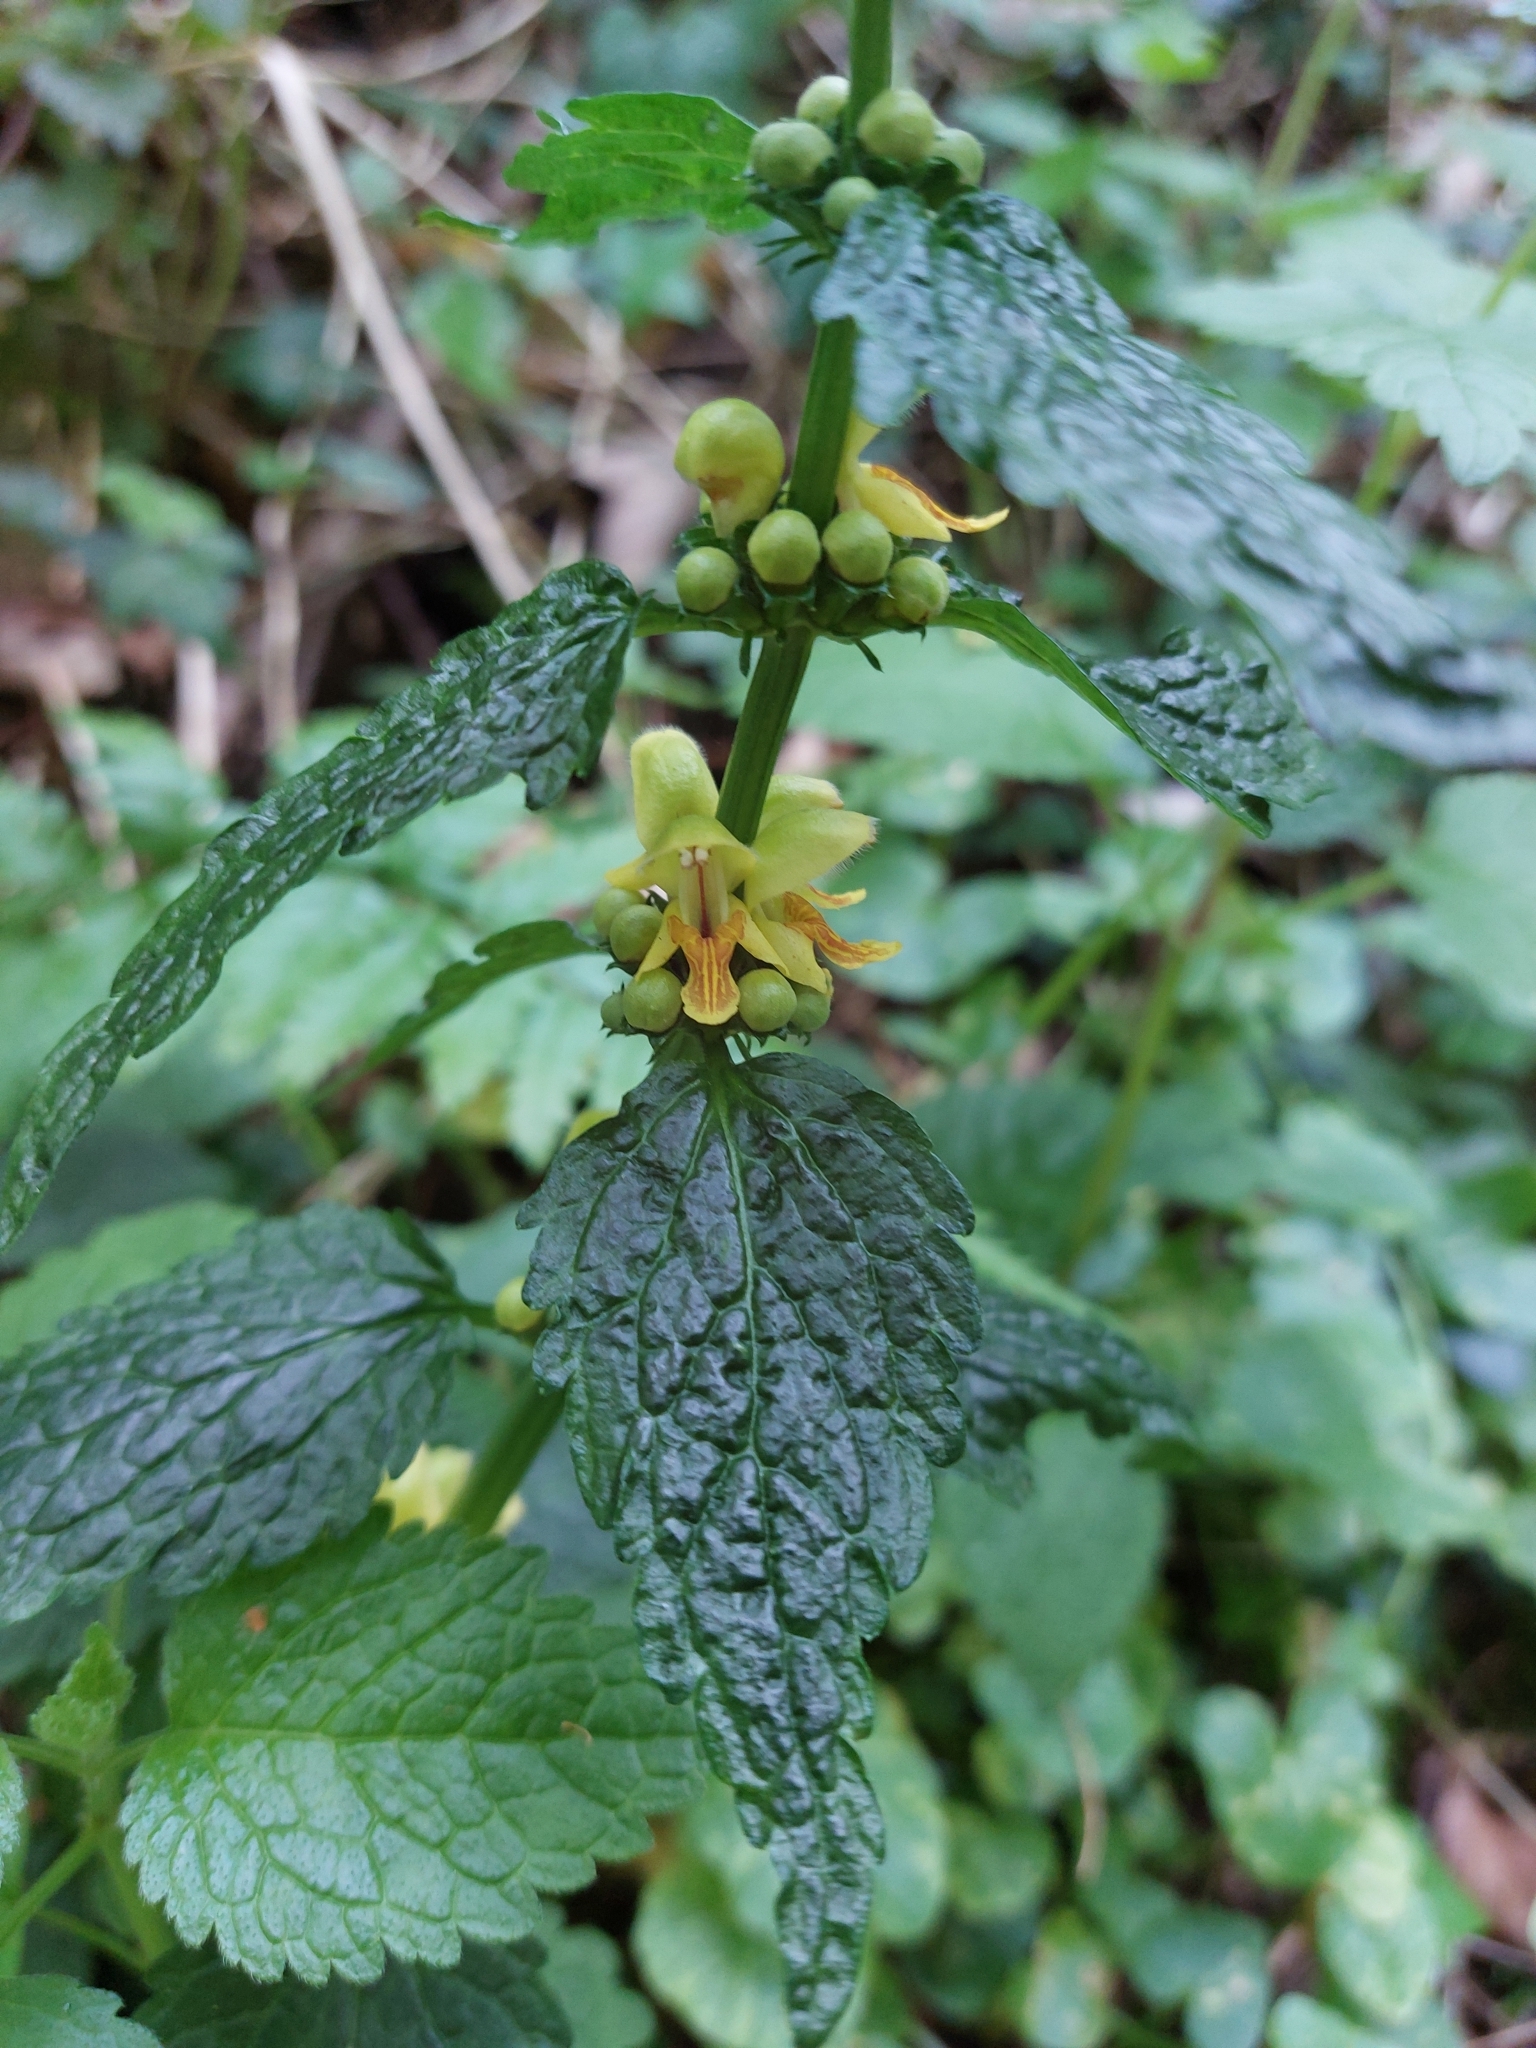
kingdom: Plantae
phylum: Tracheophyta
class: Magnoliopsida
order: Lamiales
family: Lamiaceae
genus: Lamium
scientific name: Lamium galeobdolon
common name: Yellow archangel
